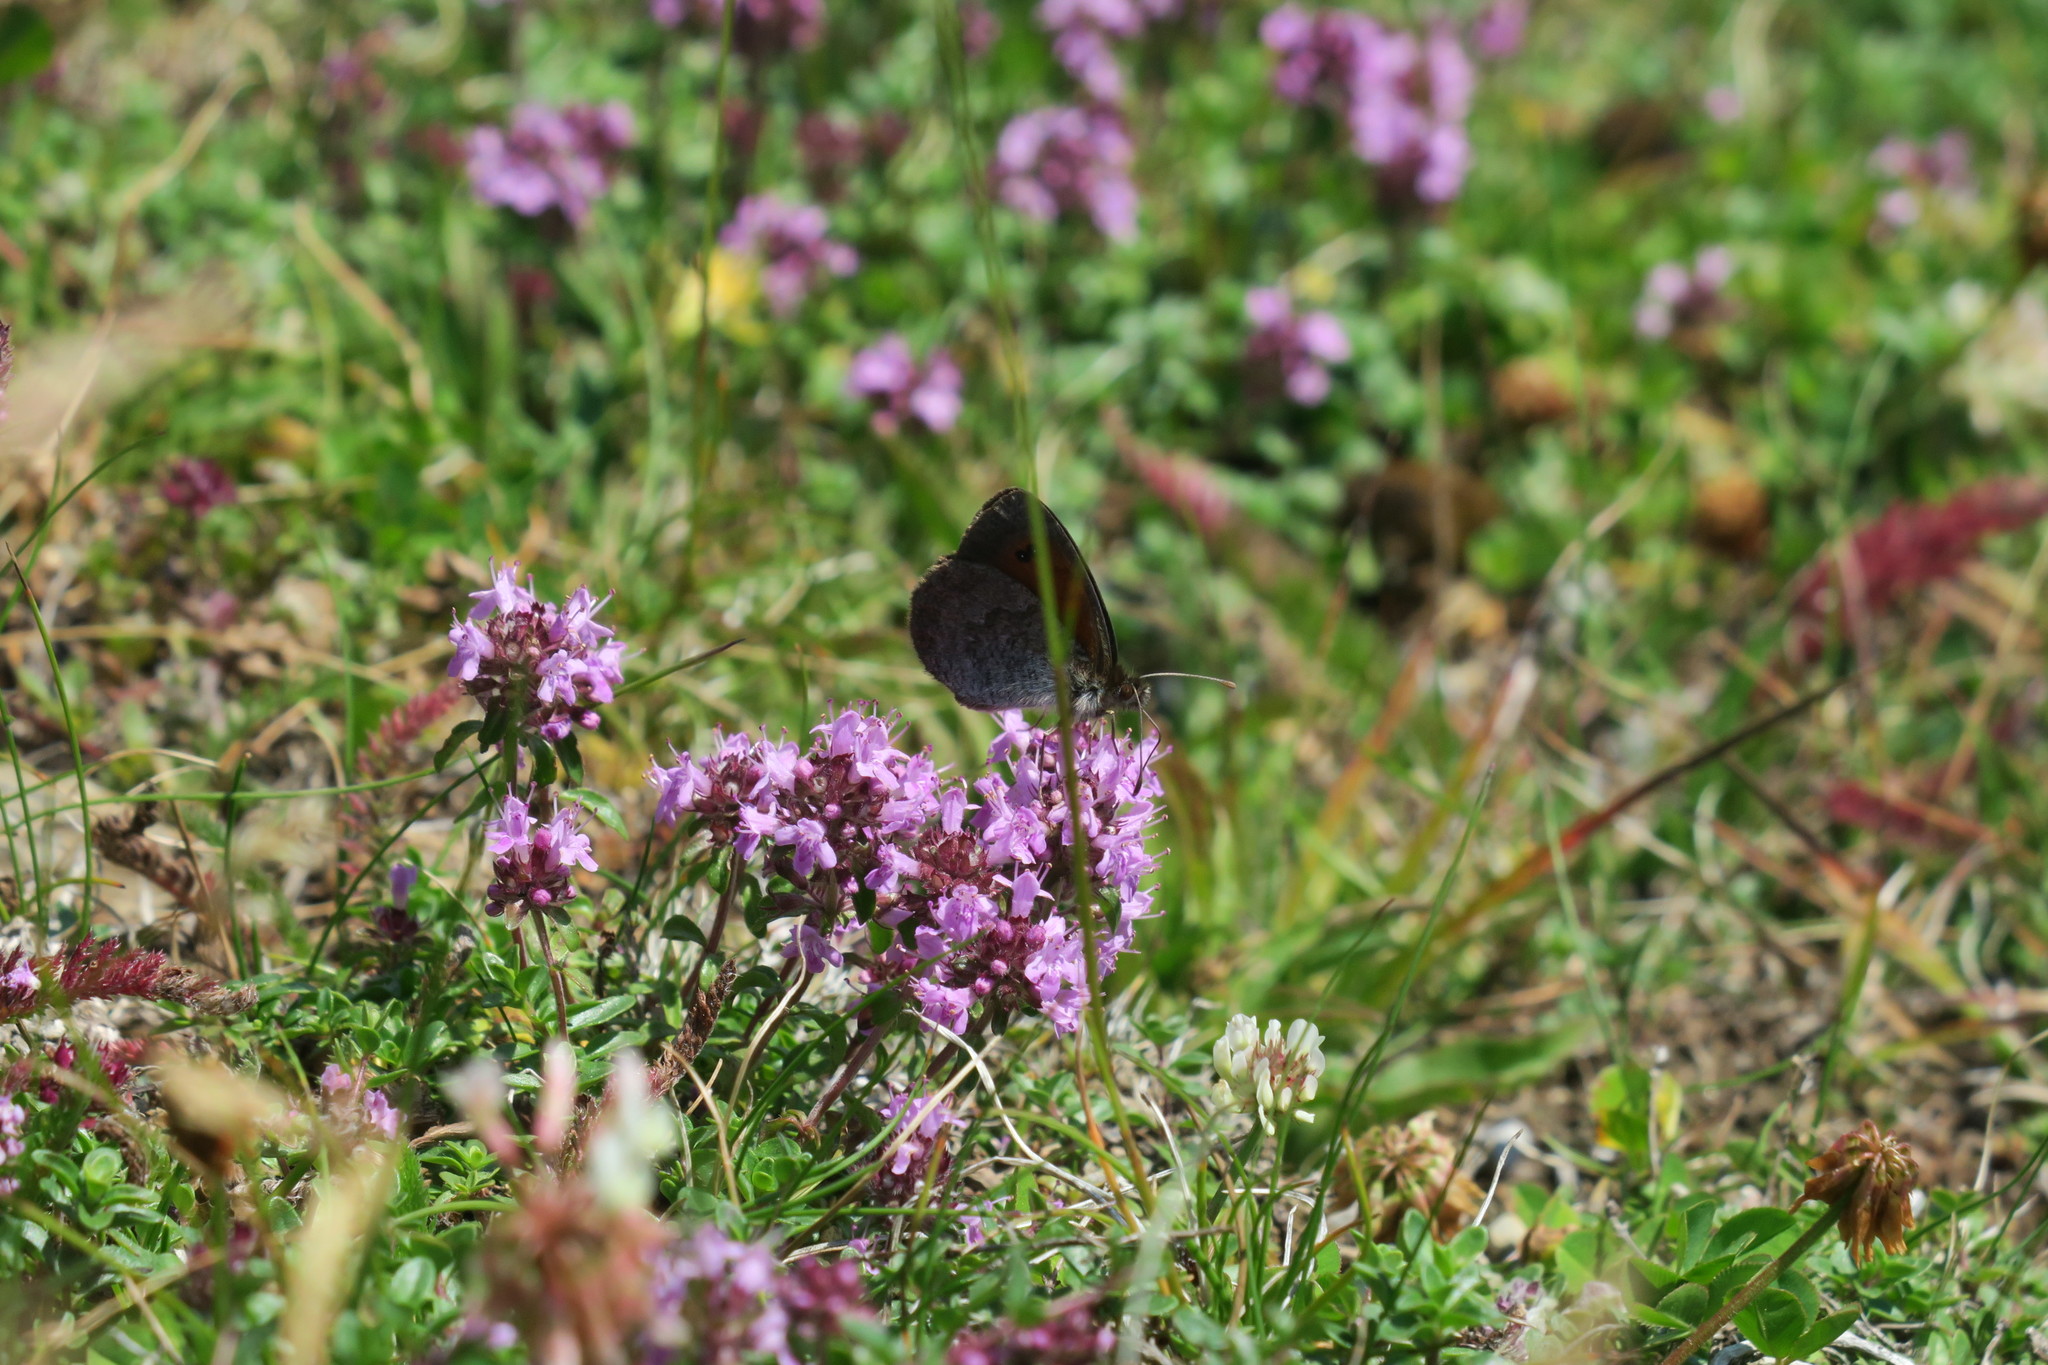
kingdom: Animalia
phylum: Arthropoda
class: Insecta
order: Lepidoptera
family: Nymphalidae
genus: Erebia
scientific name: Erebia cassioides
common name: Common brassy ringlet
